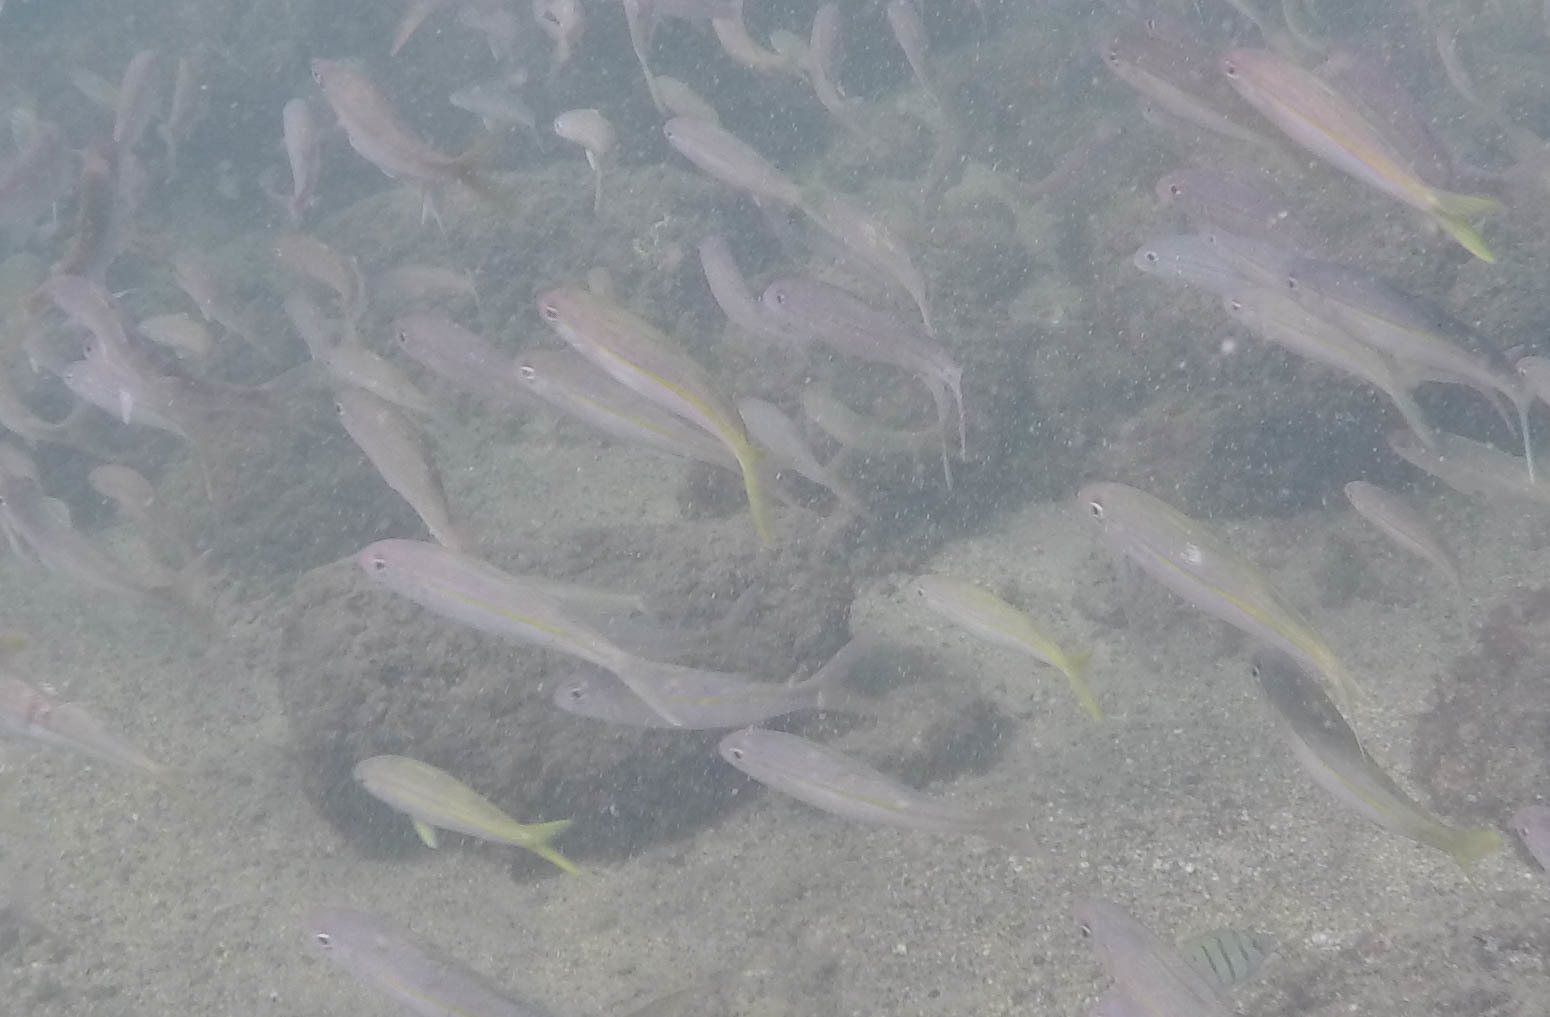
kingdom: Animalia
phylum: Chordata
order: Perciformes
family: Mullidae
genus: Mulloidichthys
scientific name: Mulloidichthys vanicolensis
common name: Yellowfin goatfish
